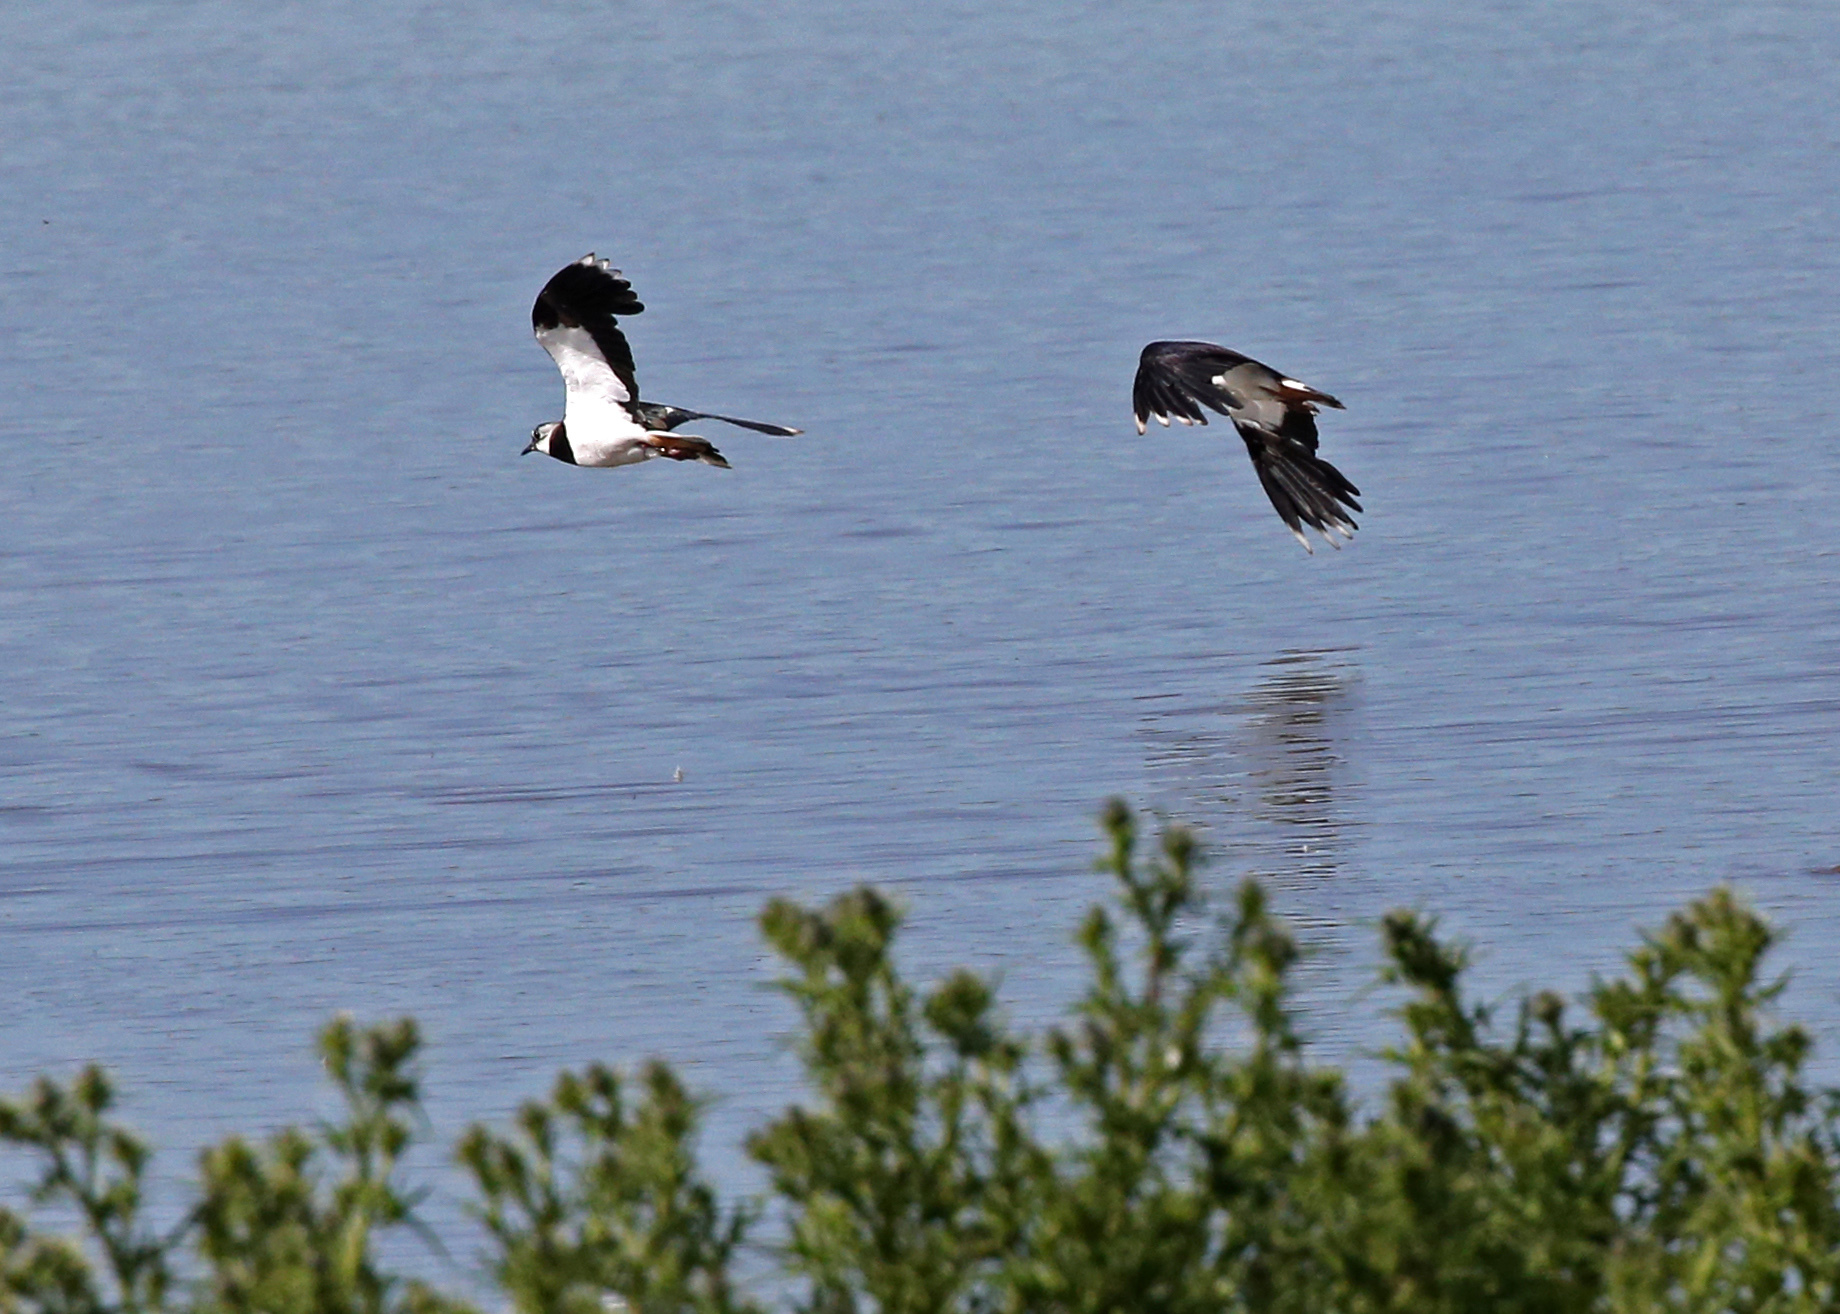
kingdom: Animalia
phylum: Chordata
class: Aves
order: Charadriiformes
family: Charadriidae
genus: Vanellus
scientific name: Vanellus vanellus
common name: Northern lapwing
